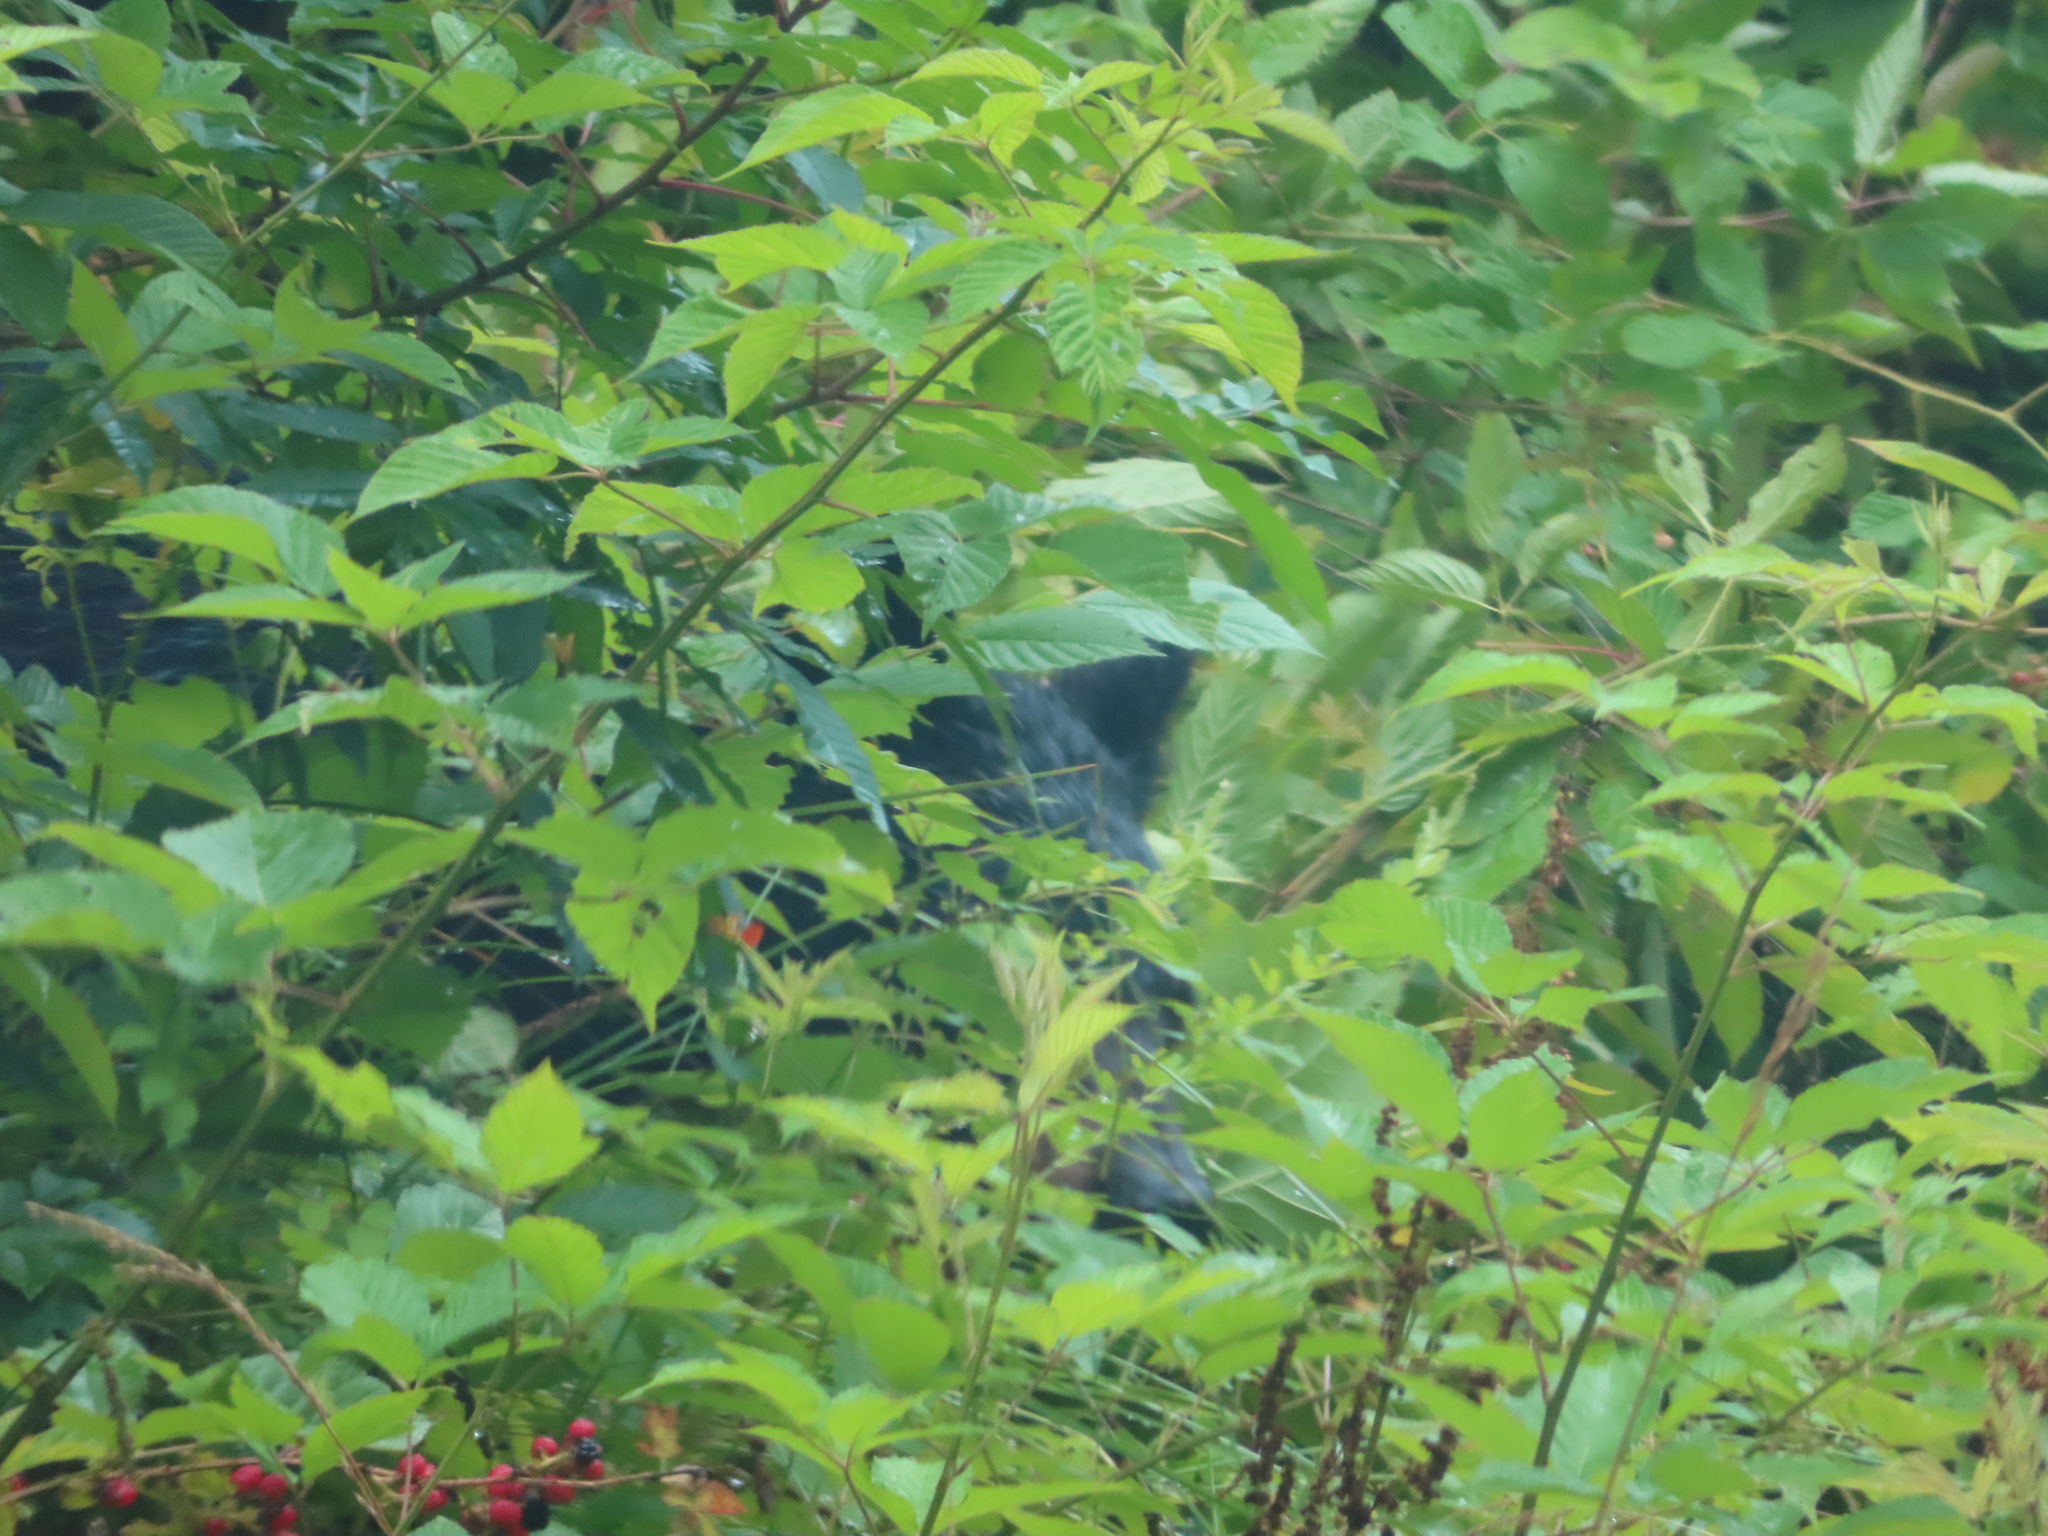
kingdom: Animalia
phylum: Chordata
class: Mammalia
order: Carnivora
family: Ursidae
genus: Ursus
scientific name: Ursus americanus
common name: American black bear
